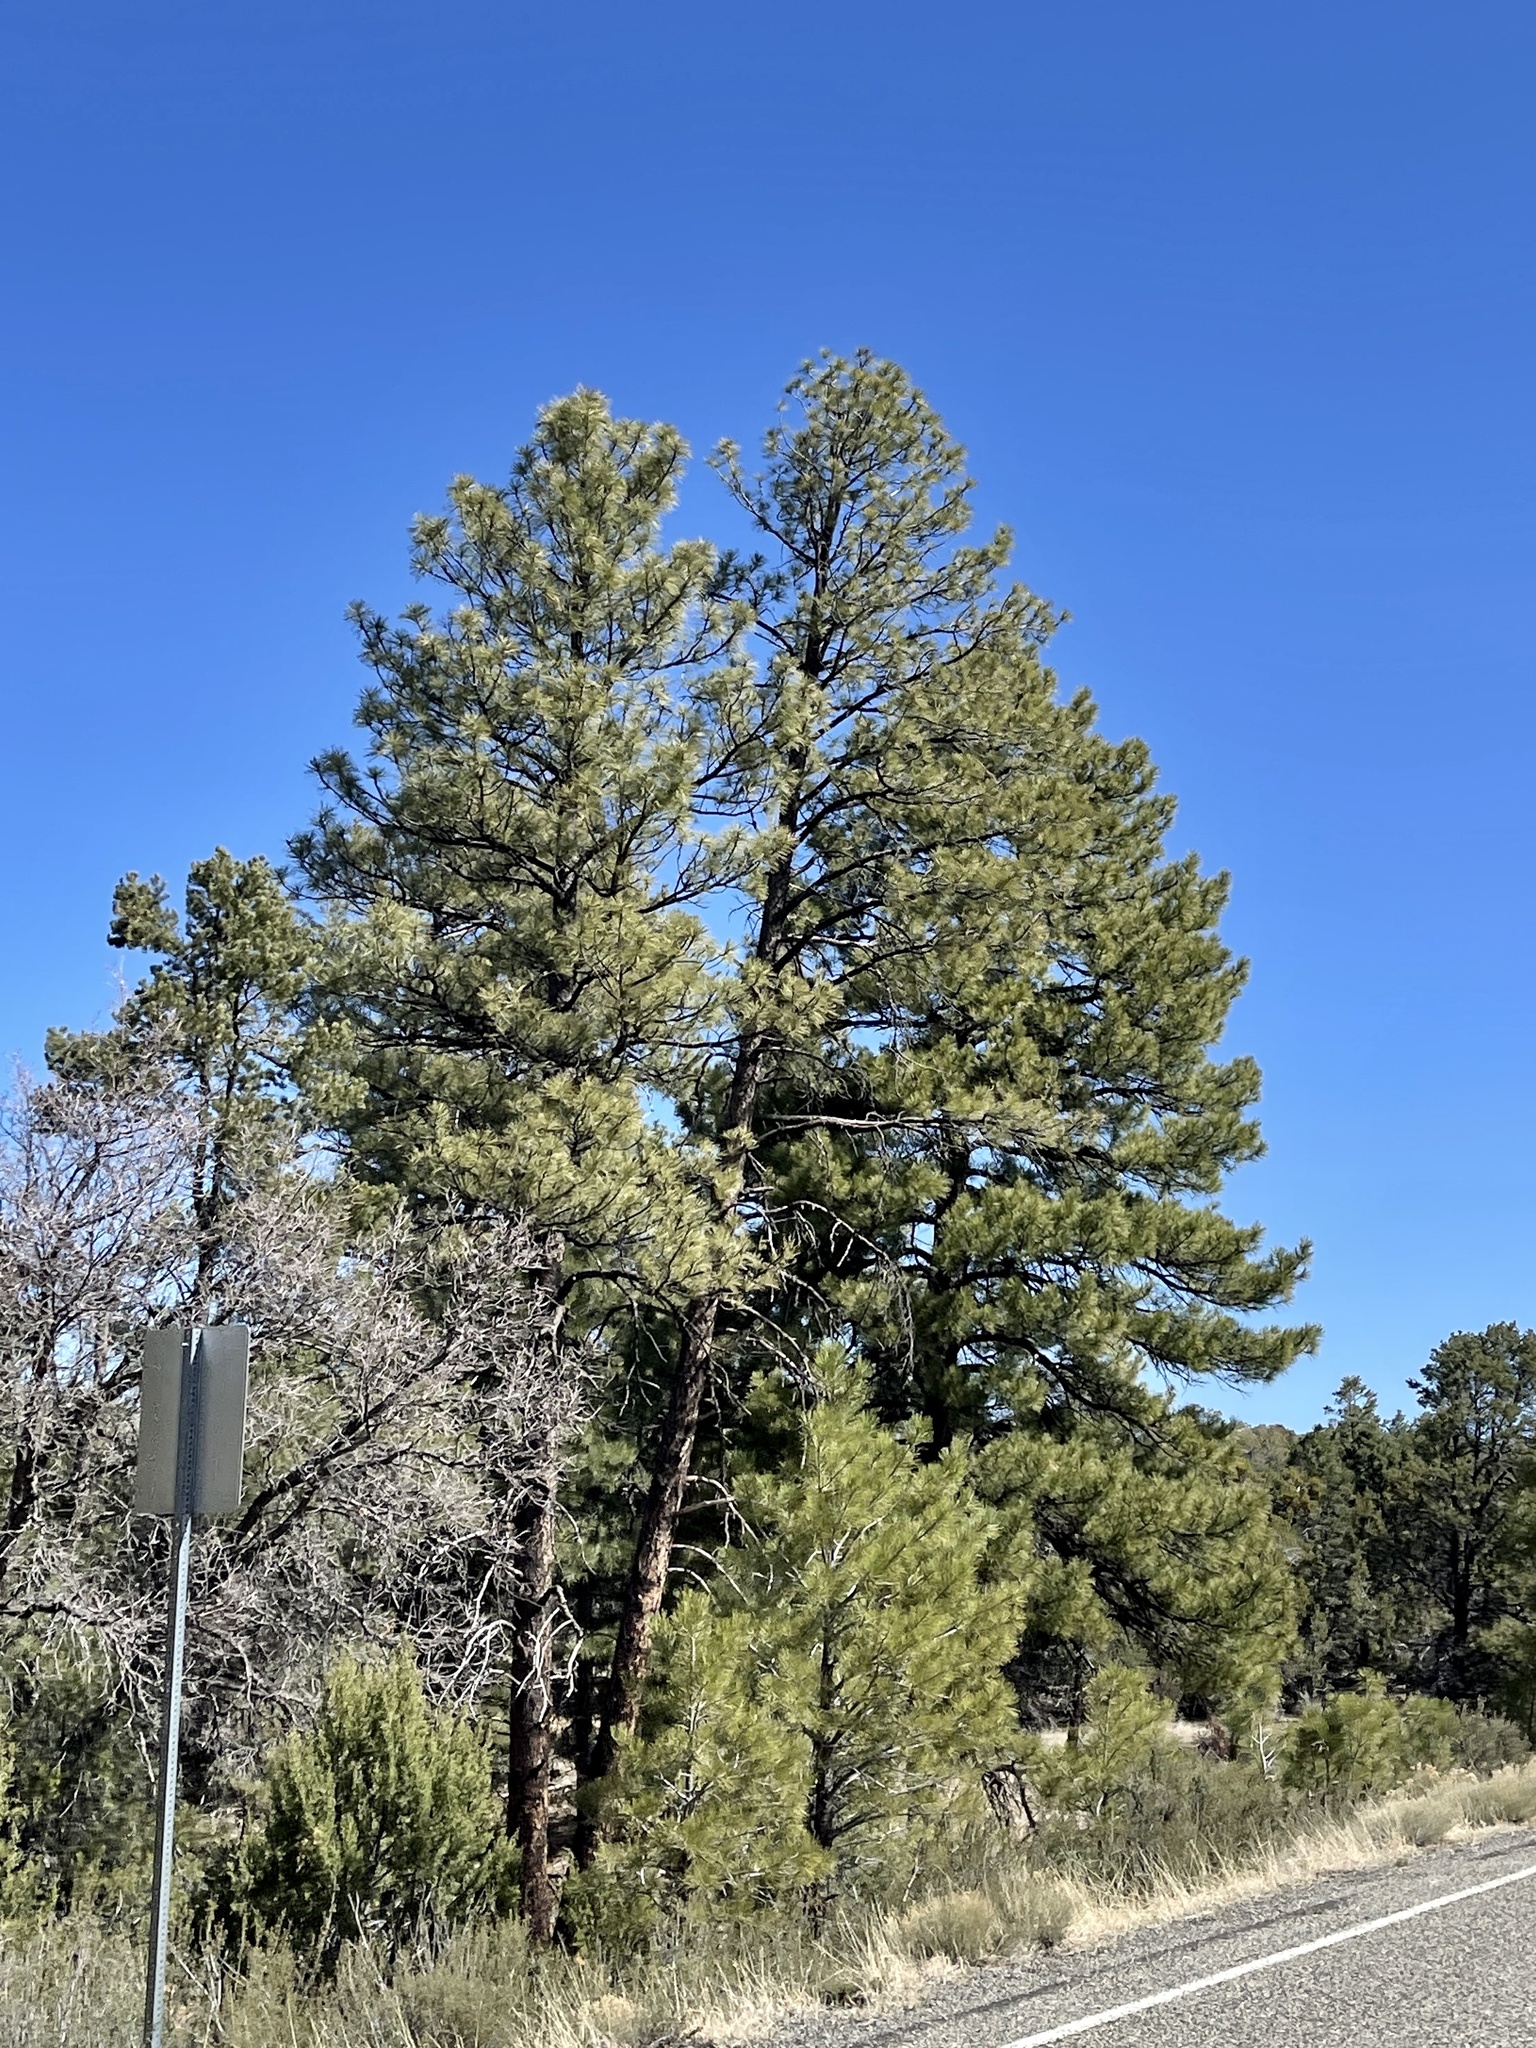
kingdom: Plantae
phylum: Tracheophyta
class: Pinopsida
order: Pinales
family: Pinaceae
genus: Pinus
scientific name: Pinus ponderosa
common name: Western yellow-pine
